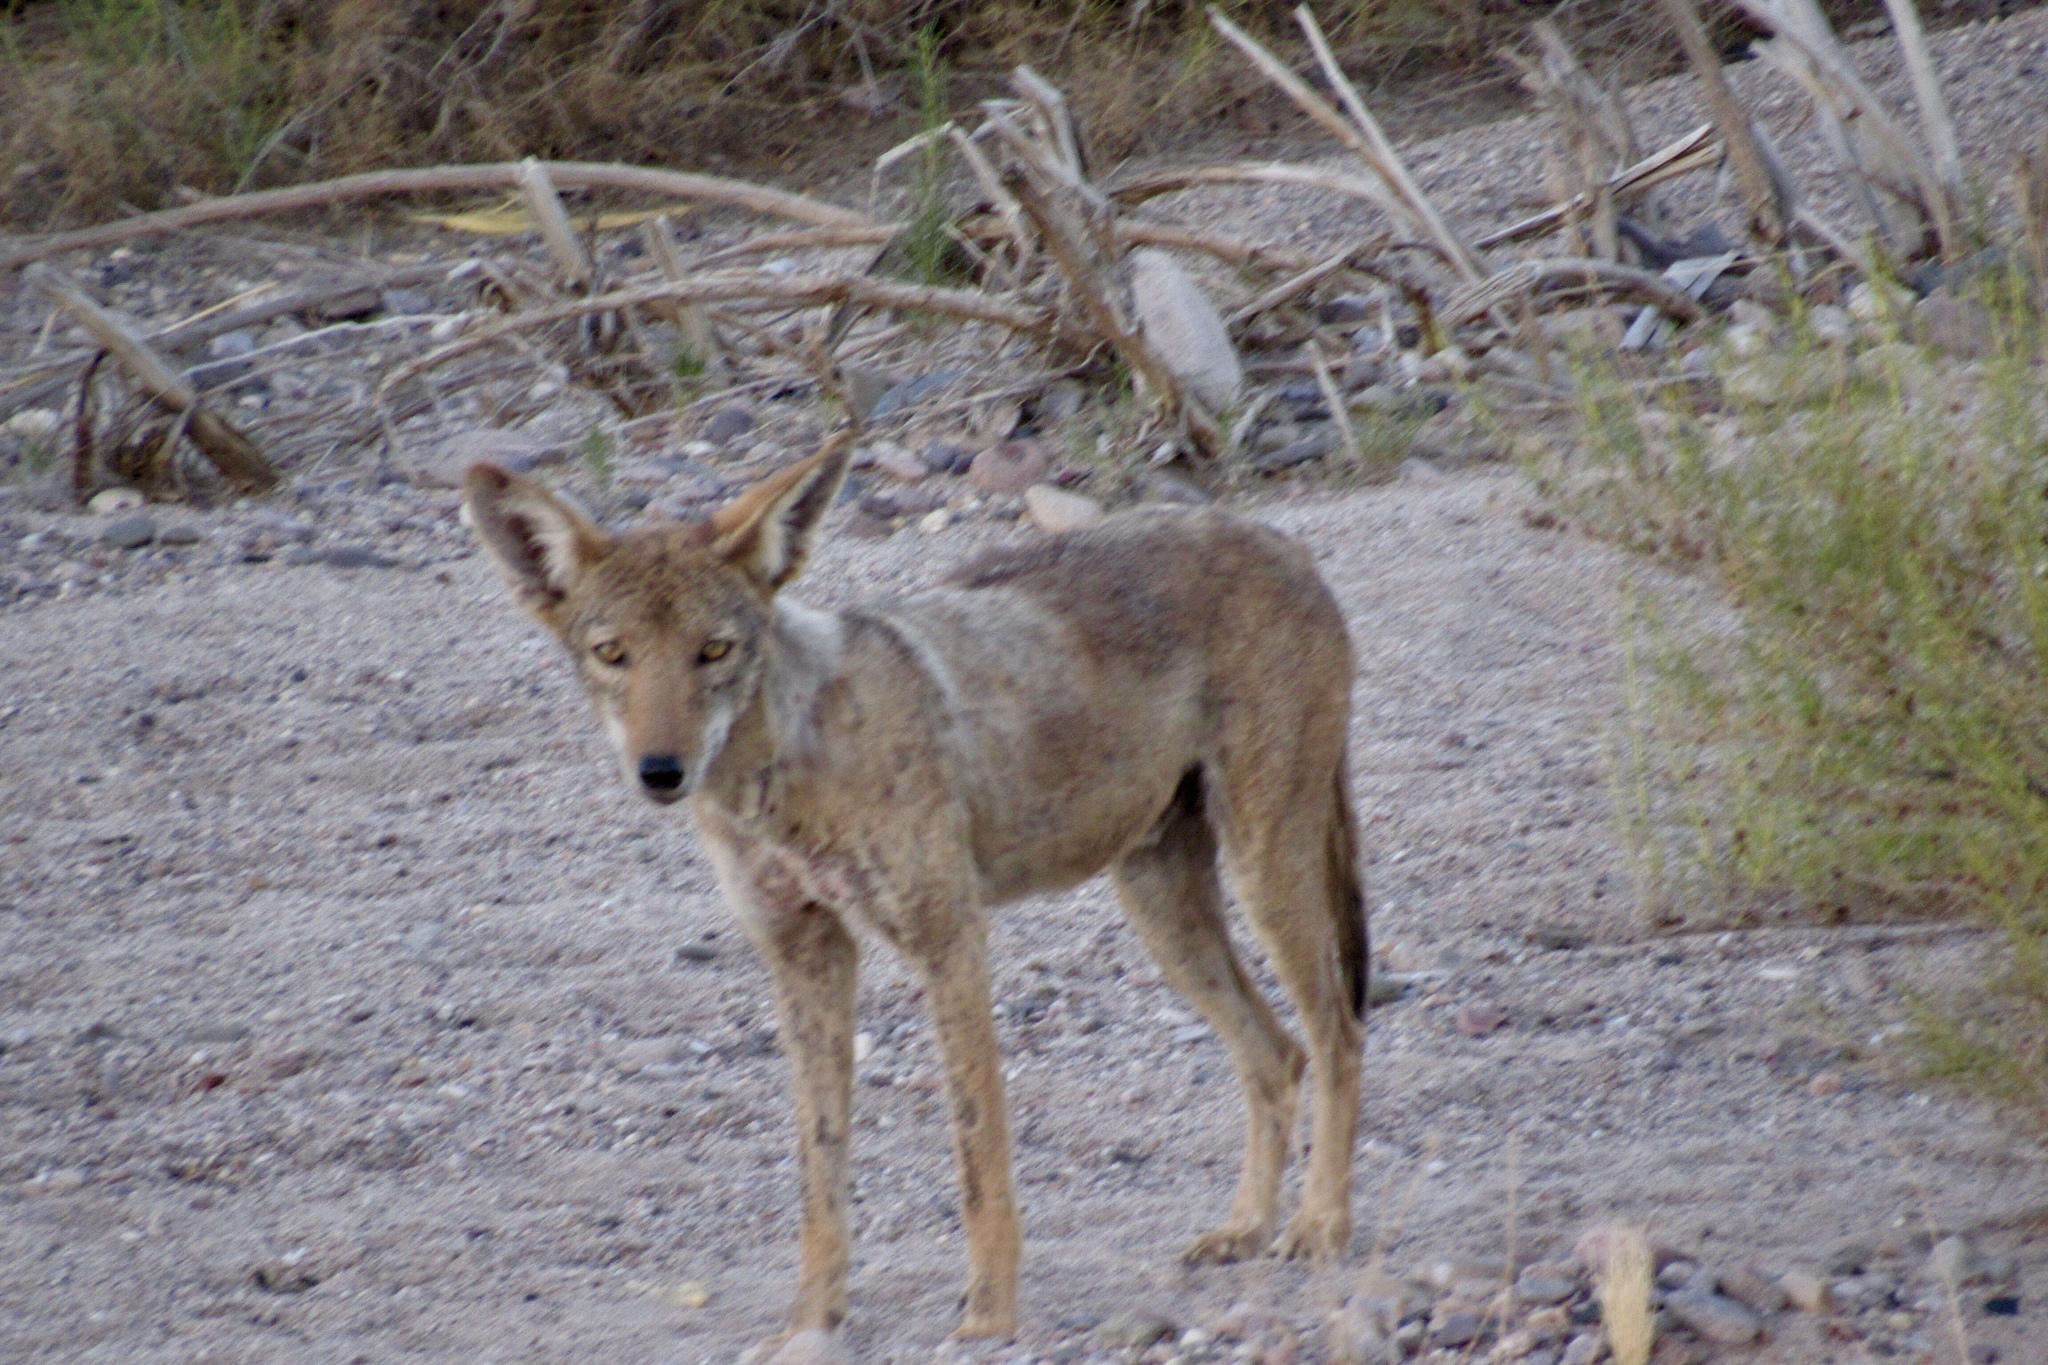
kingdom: Animalia
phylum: Chordata
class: Mammalia
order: Carnivora
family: Canidae
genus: Canis
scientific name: Canis latrans
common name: Coyote
